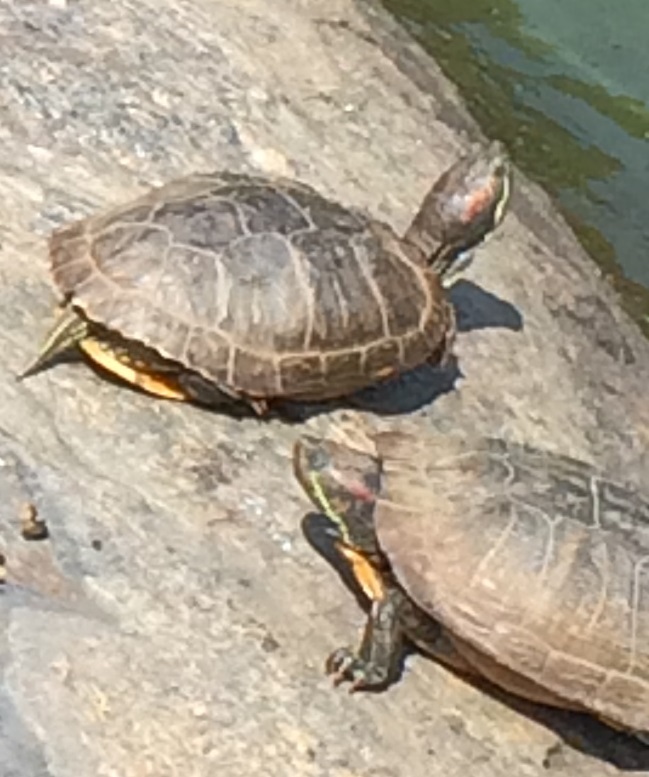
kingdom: Animalia
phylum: Chordata
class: Testudines
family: Emydidae
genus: Trachemys
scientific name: Trachemys scripta
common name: Slider
